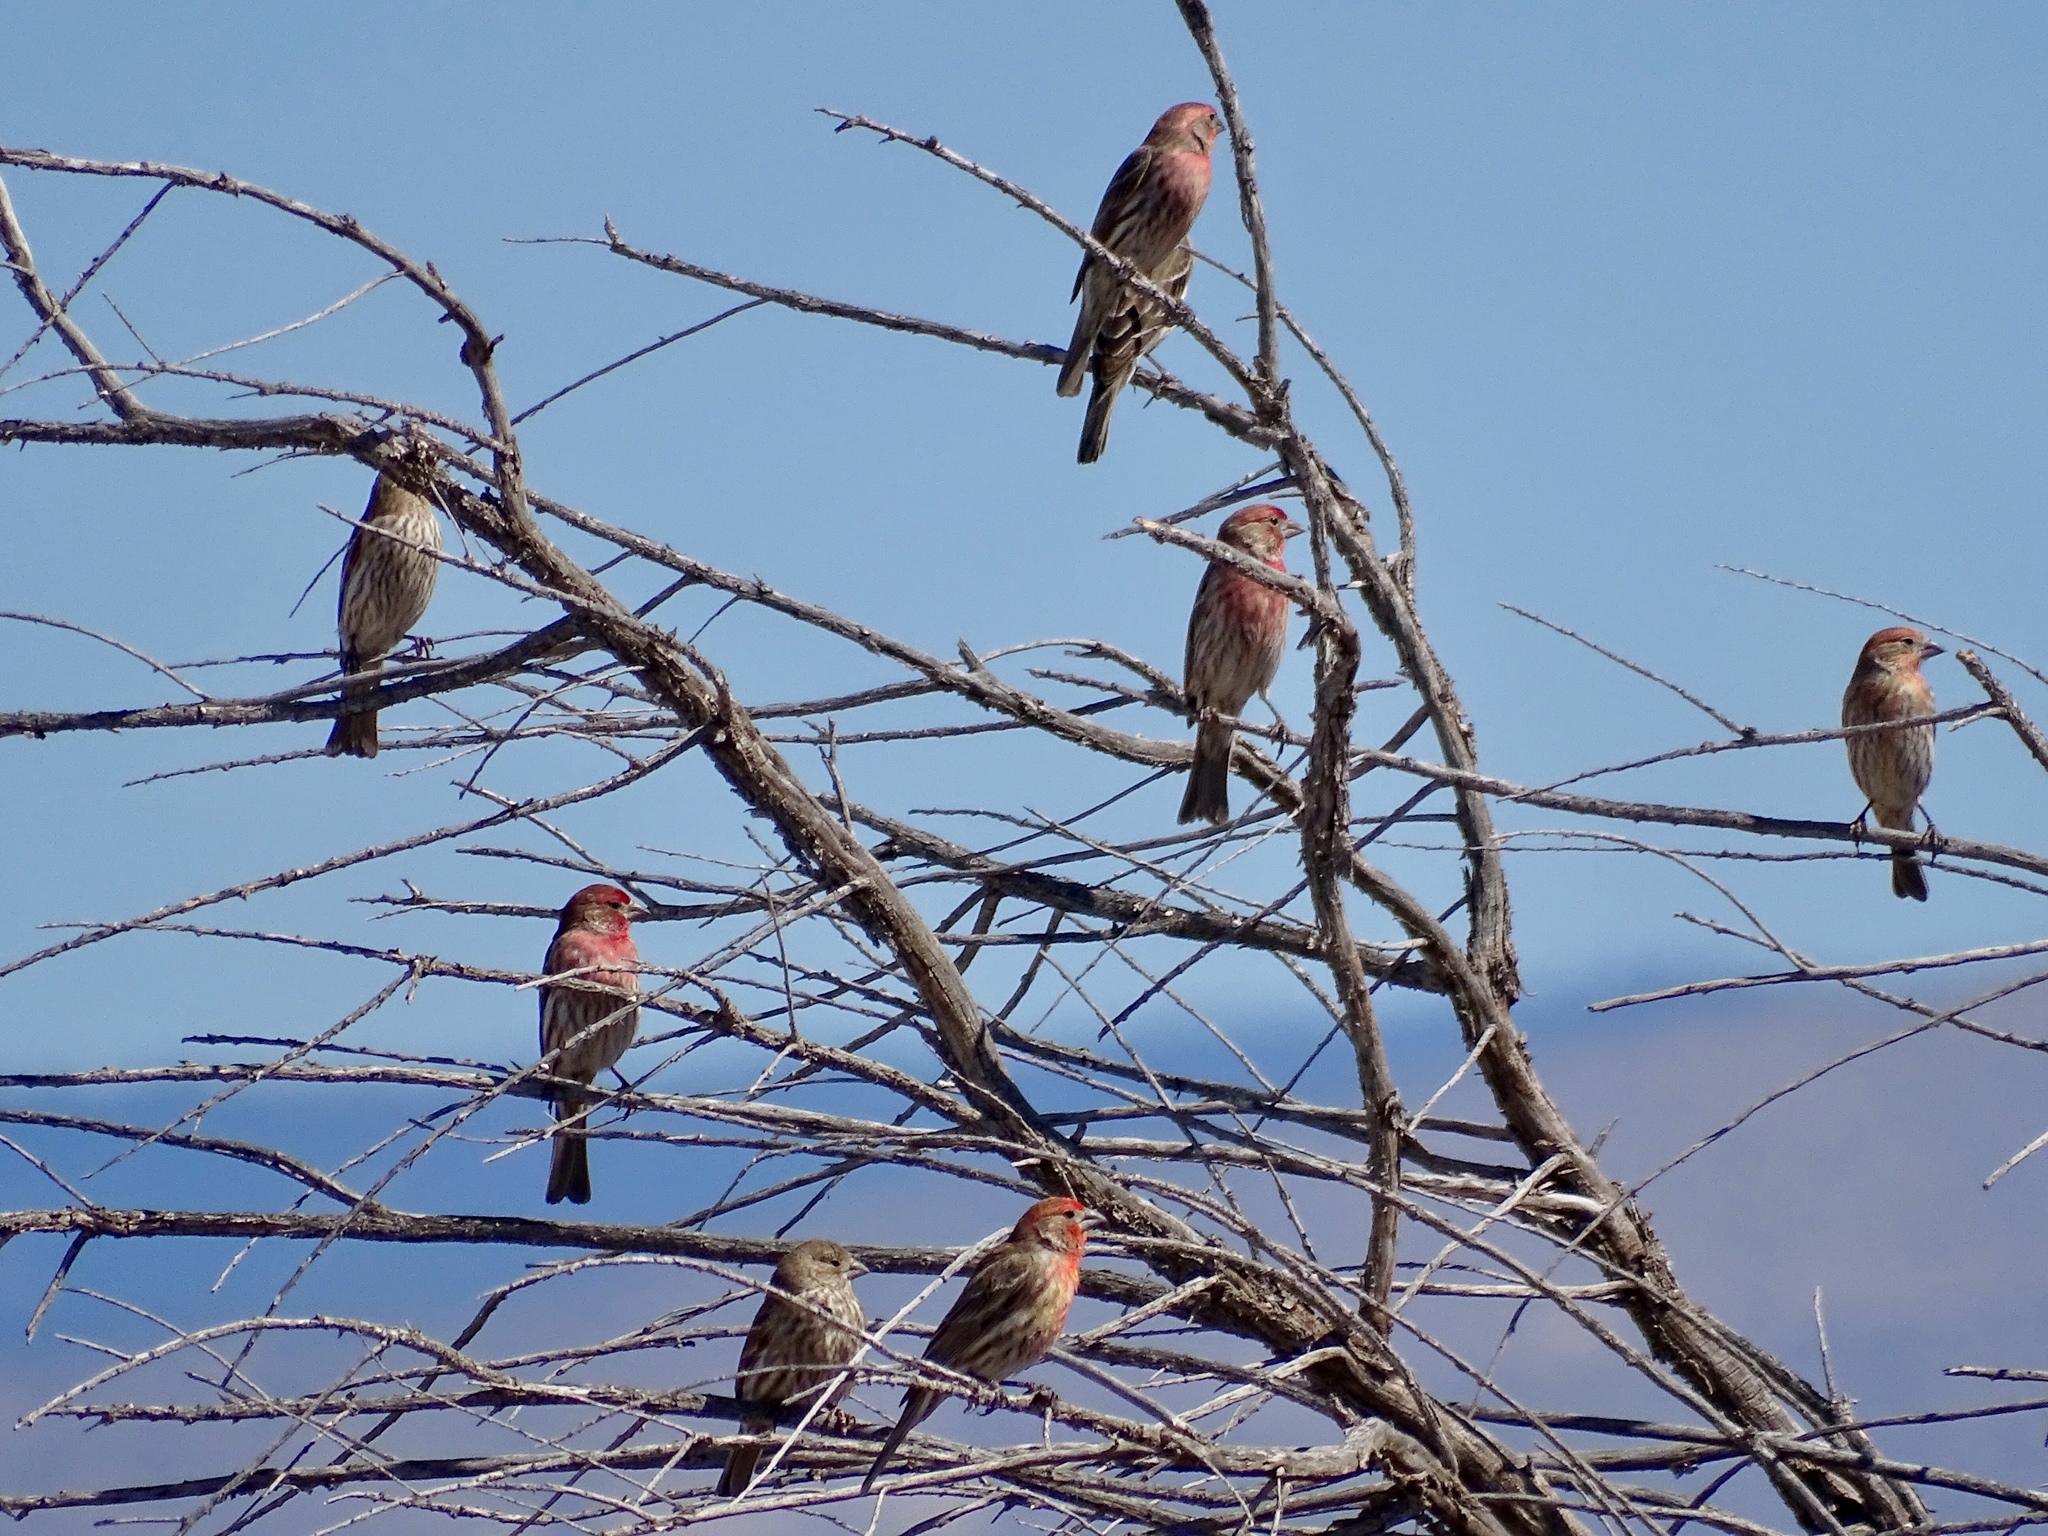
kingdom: Animalia
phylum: Chordata
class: Aves
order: Passeriformes
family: Fringillidae
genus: Haemorhous
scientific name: Haemorhous mexicanus
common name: House finch
